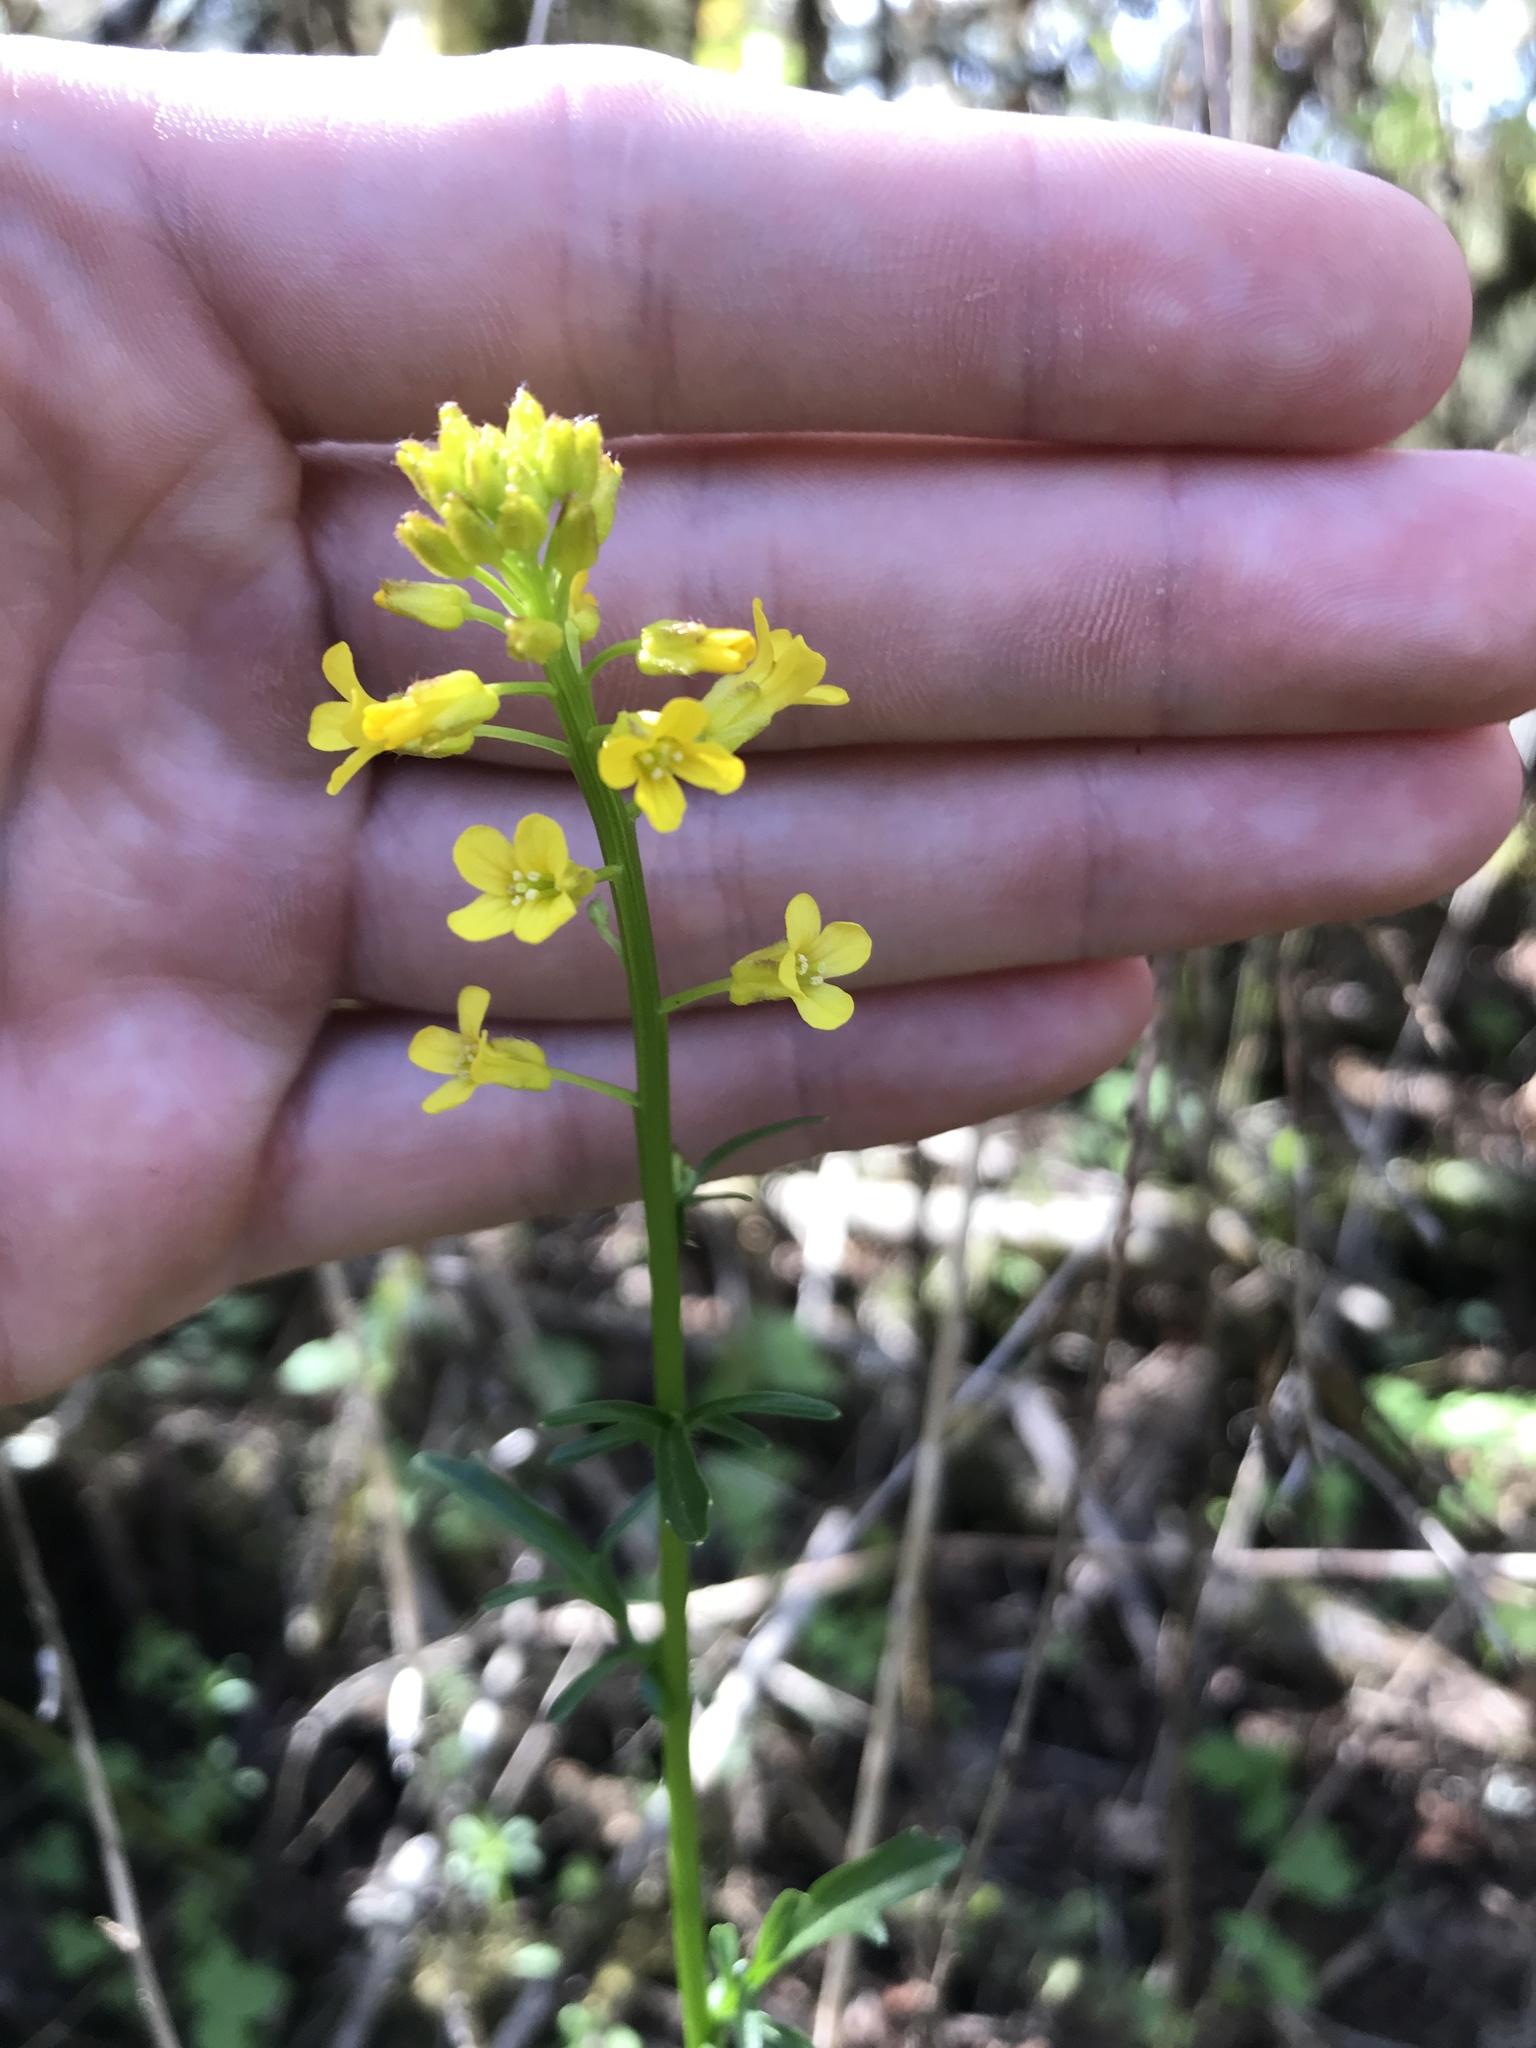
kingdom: Plantae
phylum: Tracheophyta
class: Magnoliopsida
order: Brassicales
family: Brassicaceae
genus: Barbarea
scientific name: Barbarea orthoceras
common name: American wintercress
